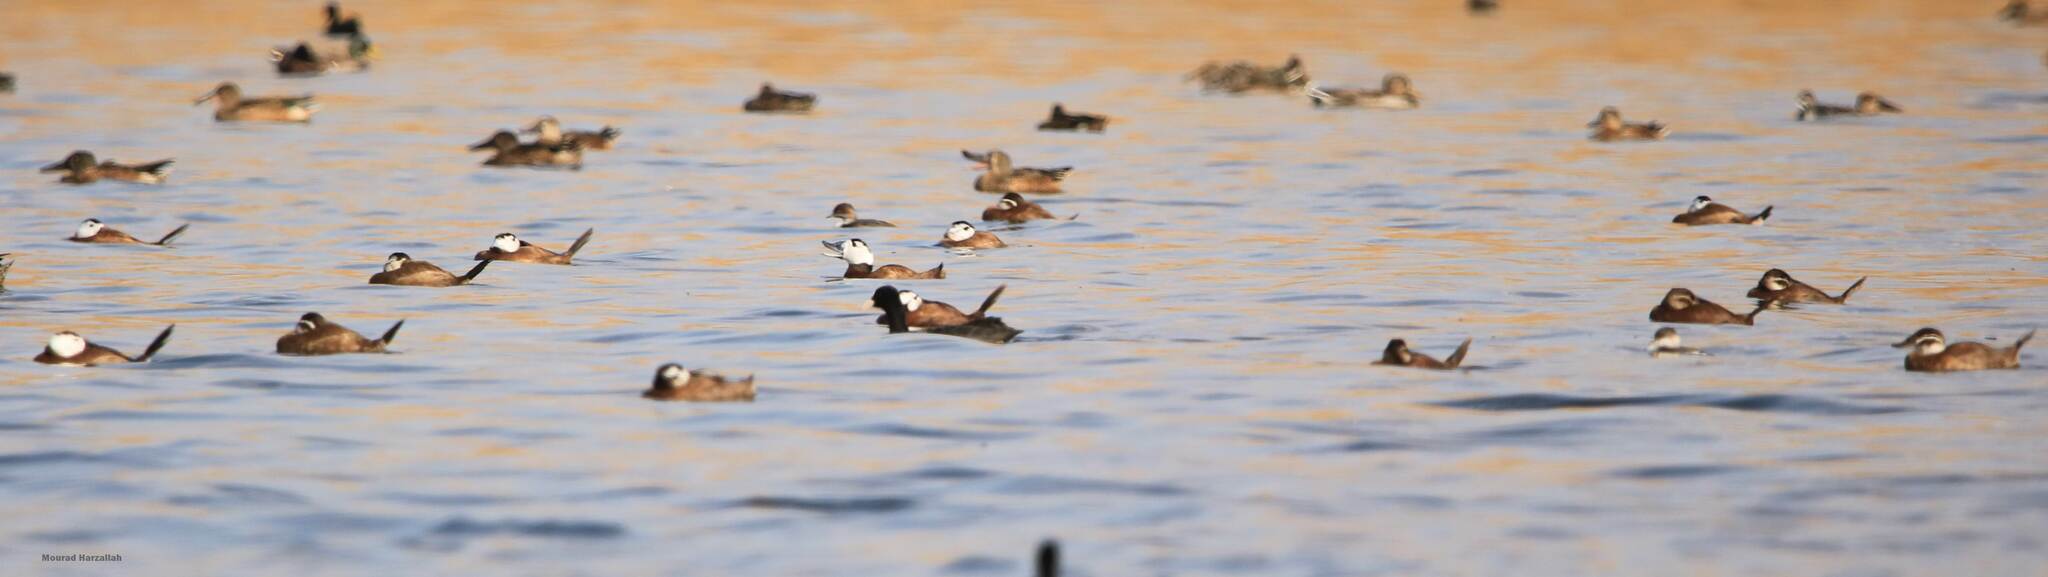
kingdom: Animalia
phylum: Chordata
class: Aves
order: Anseriformes
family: Anatidae
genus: Oxyura
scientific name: Oxyura leucocephala
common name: White-headed duck
